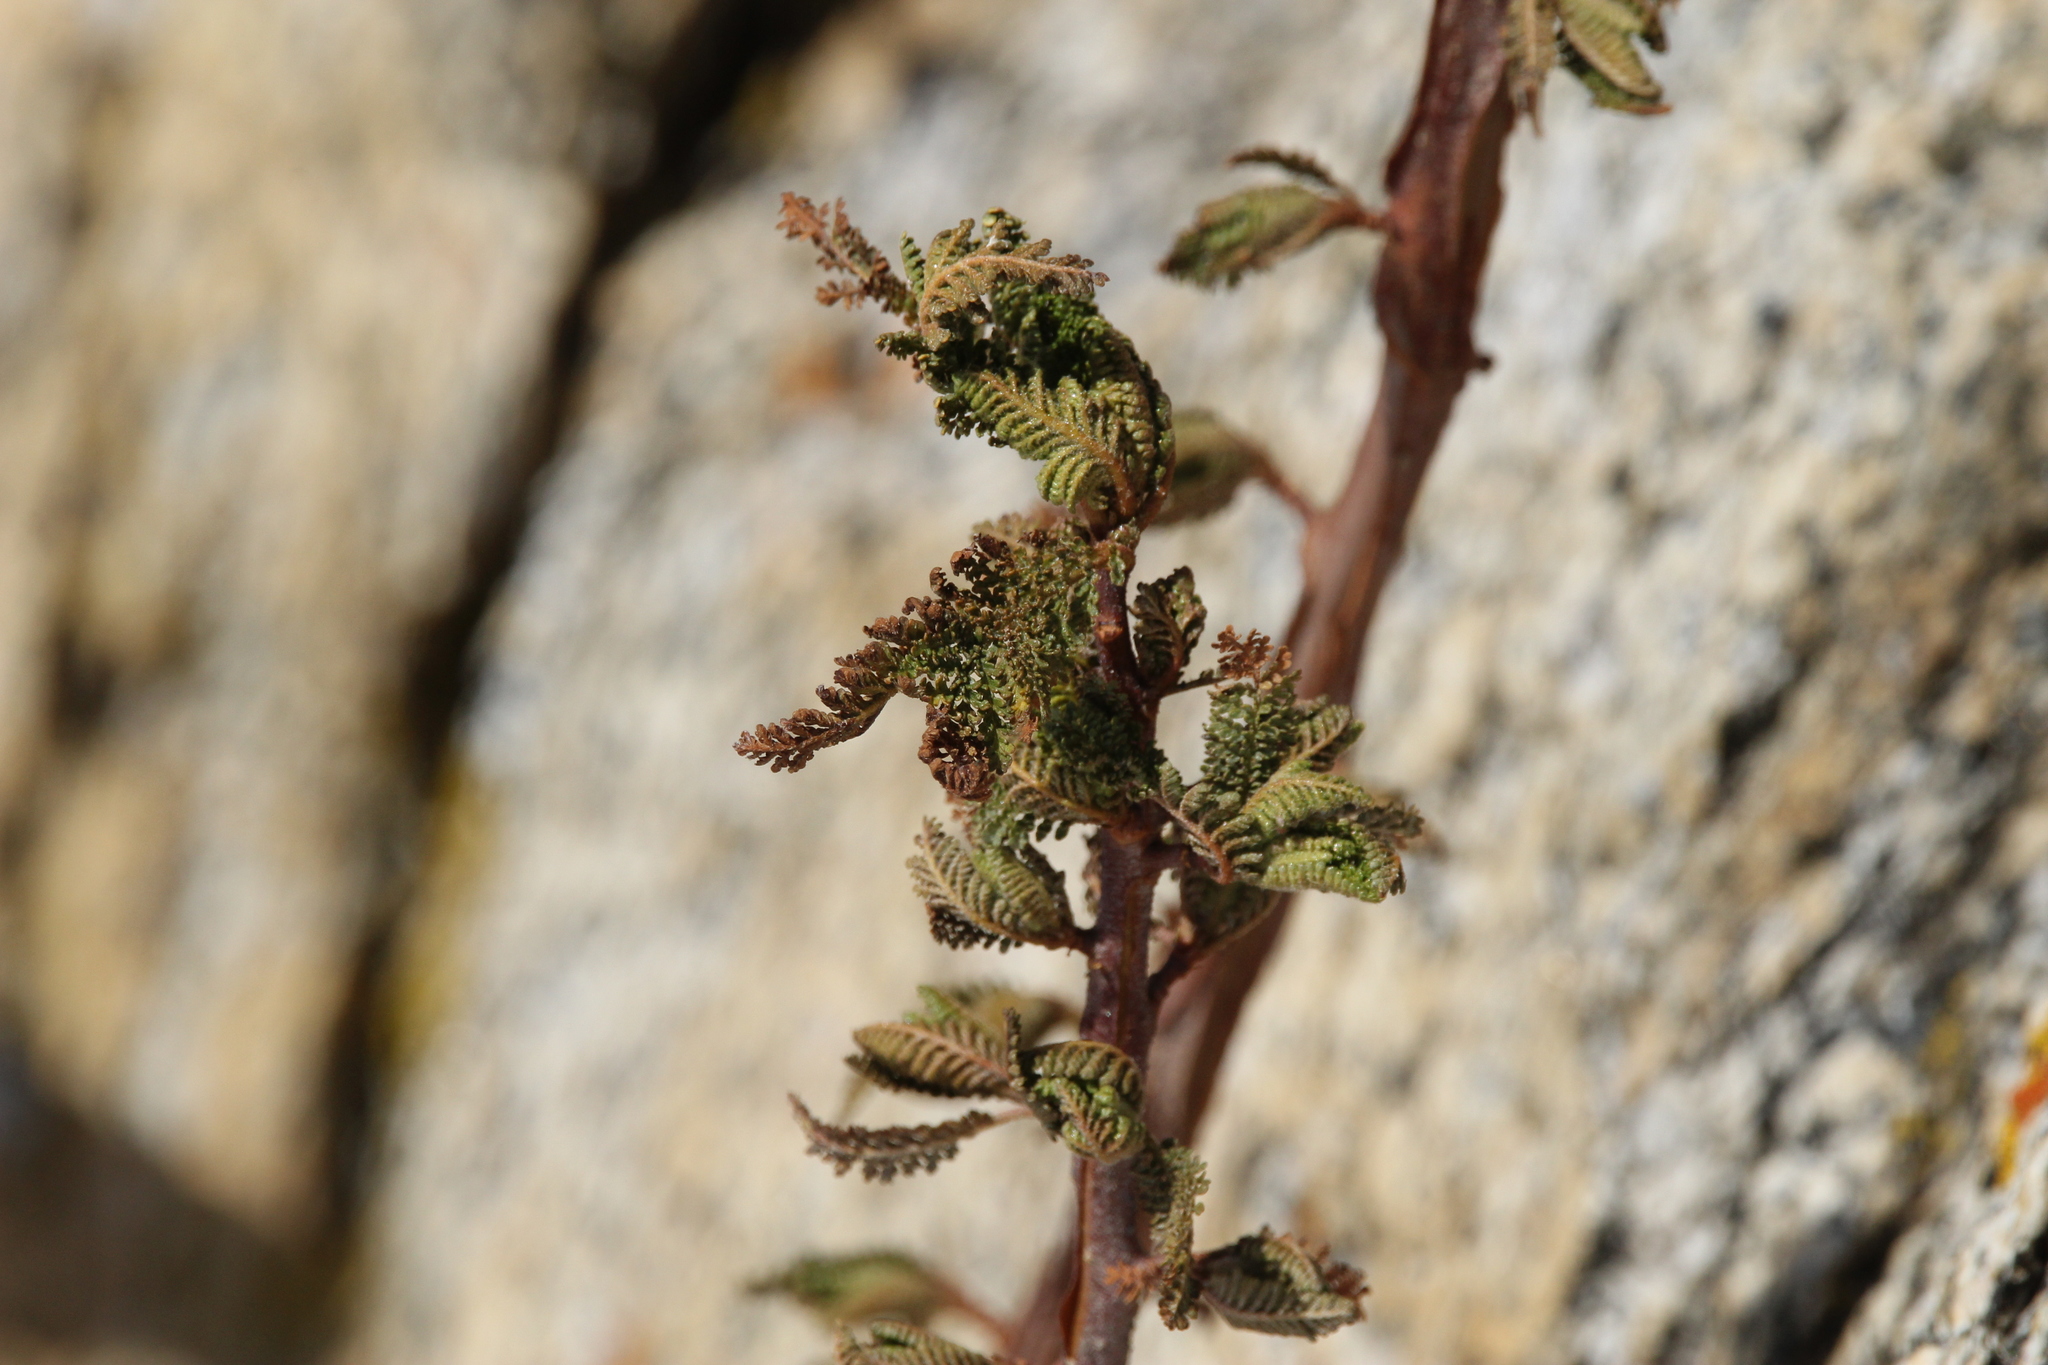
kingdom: Plantae
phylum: Tracheophyta
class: Magnoliopsida
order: Rosales
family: Rosaceae
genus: Chamaebatiaria
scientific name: Chamaebatiaria millefolium
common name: Fernbush
